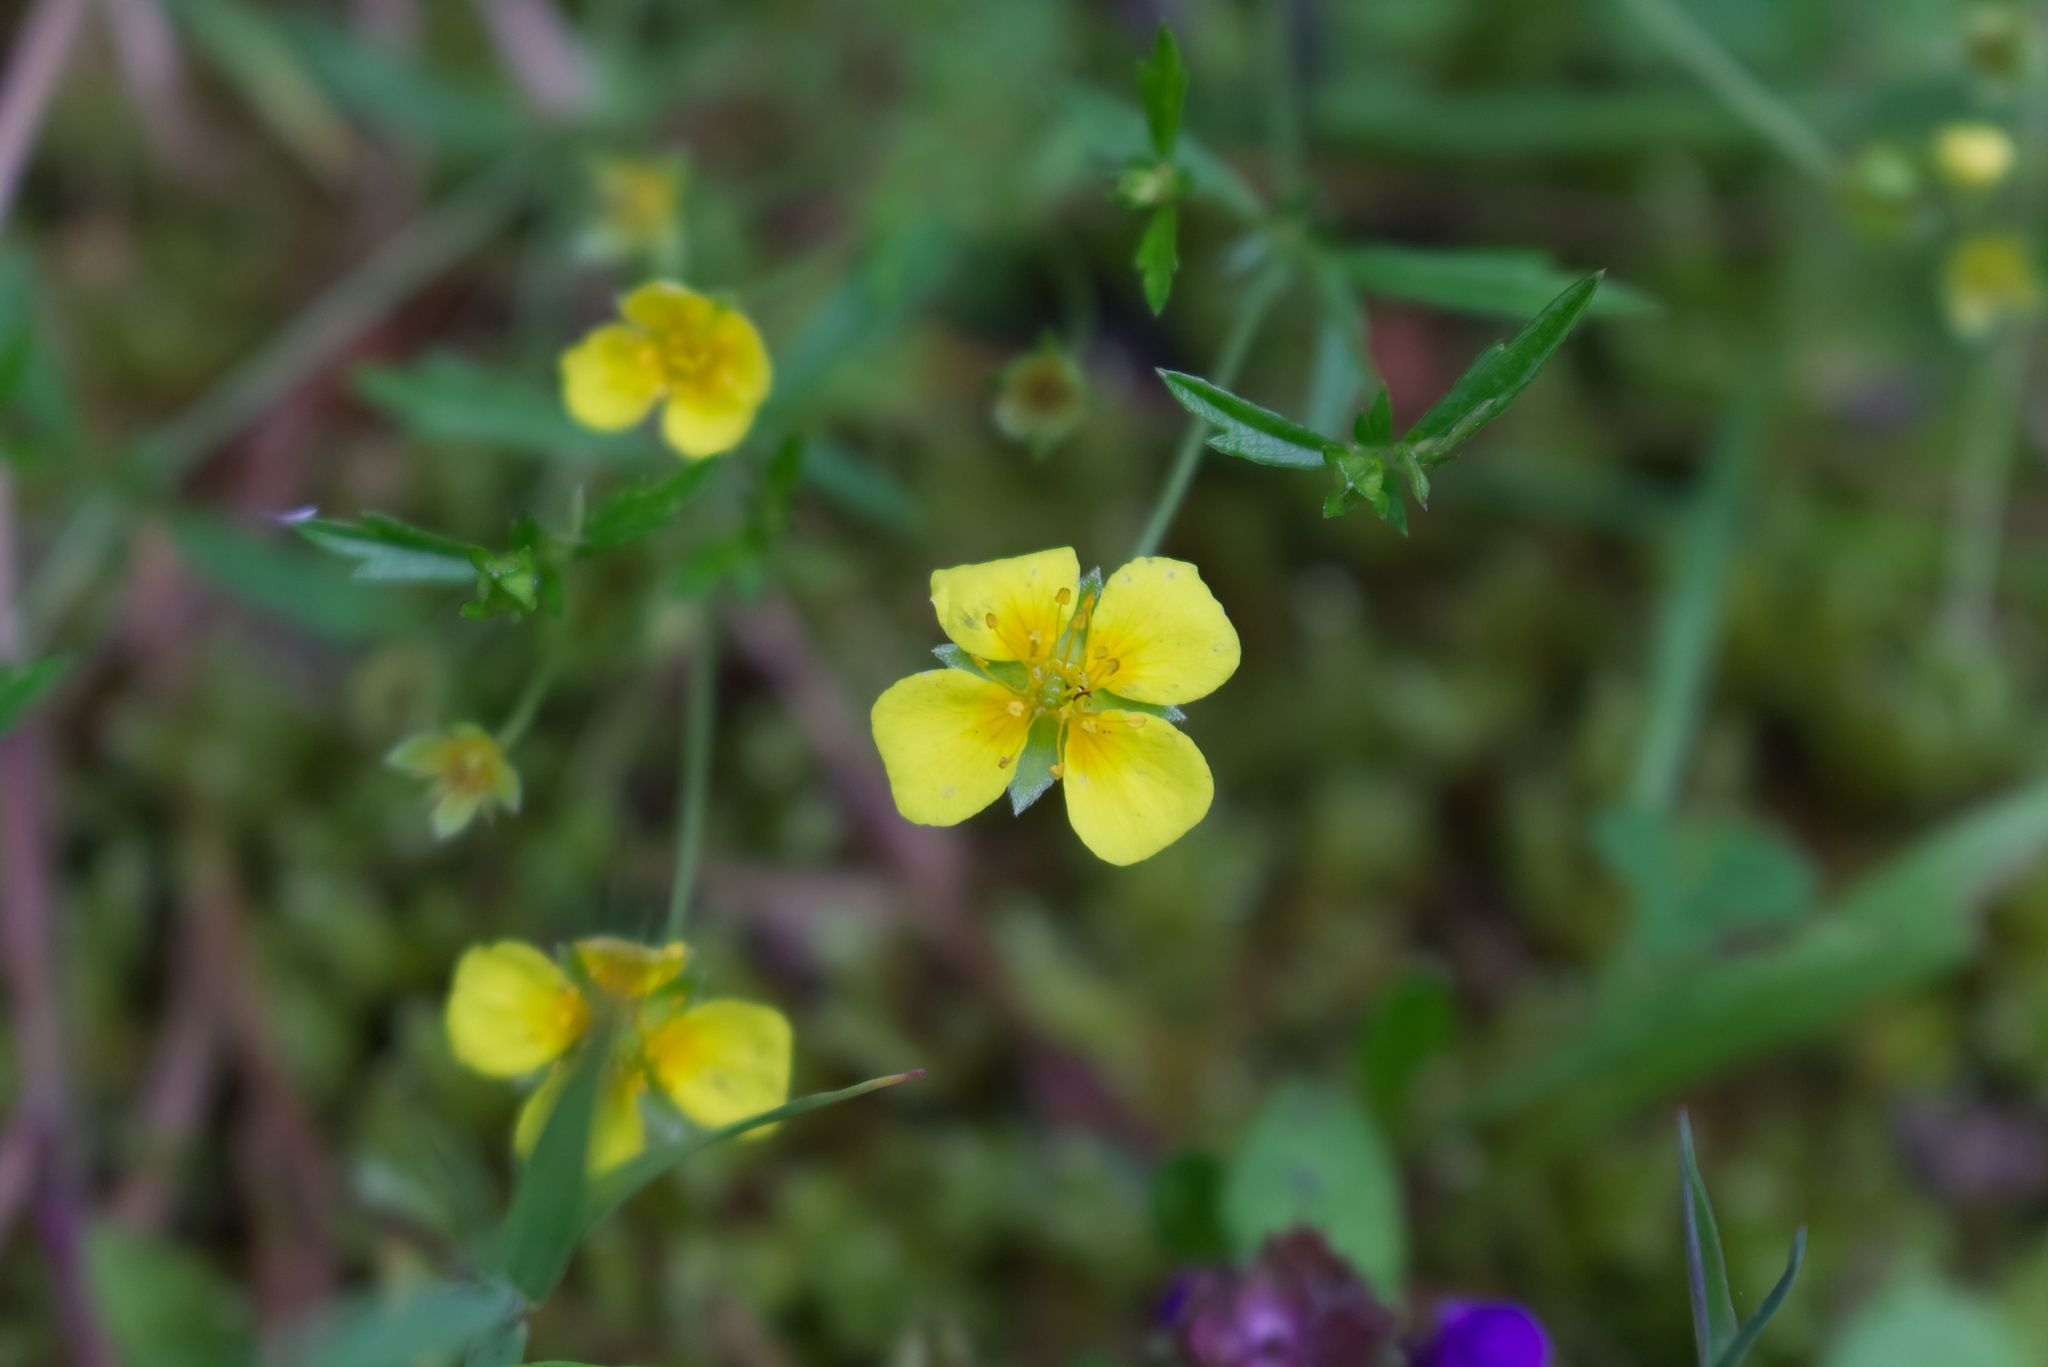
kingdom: Plantae
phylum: Tracheophyta
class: Magnoliopsida
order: Rosales
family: Rosaceae
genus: Potentilla
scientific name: Potentilla erecta
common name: Tormentil
